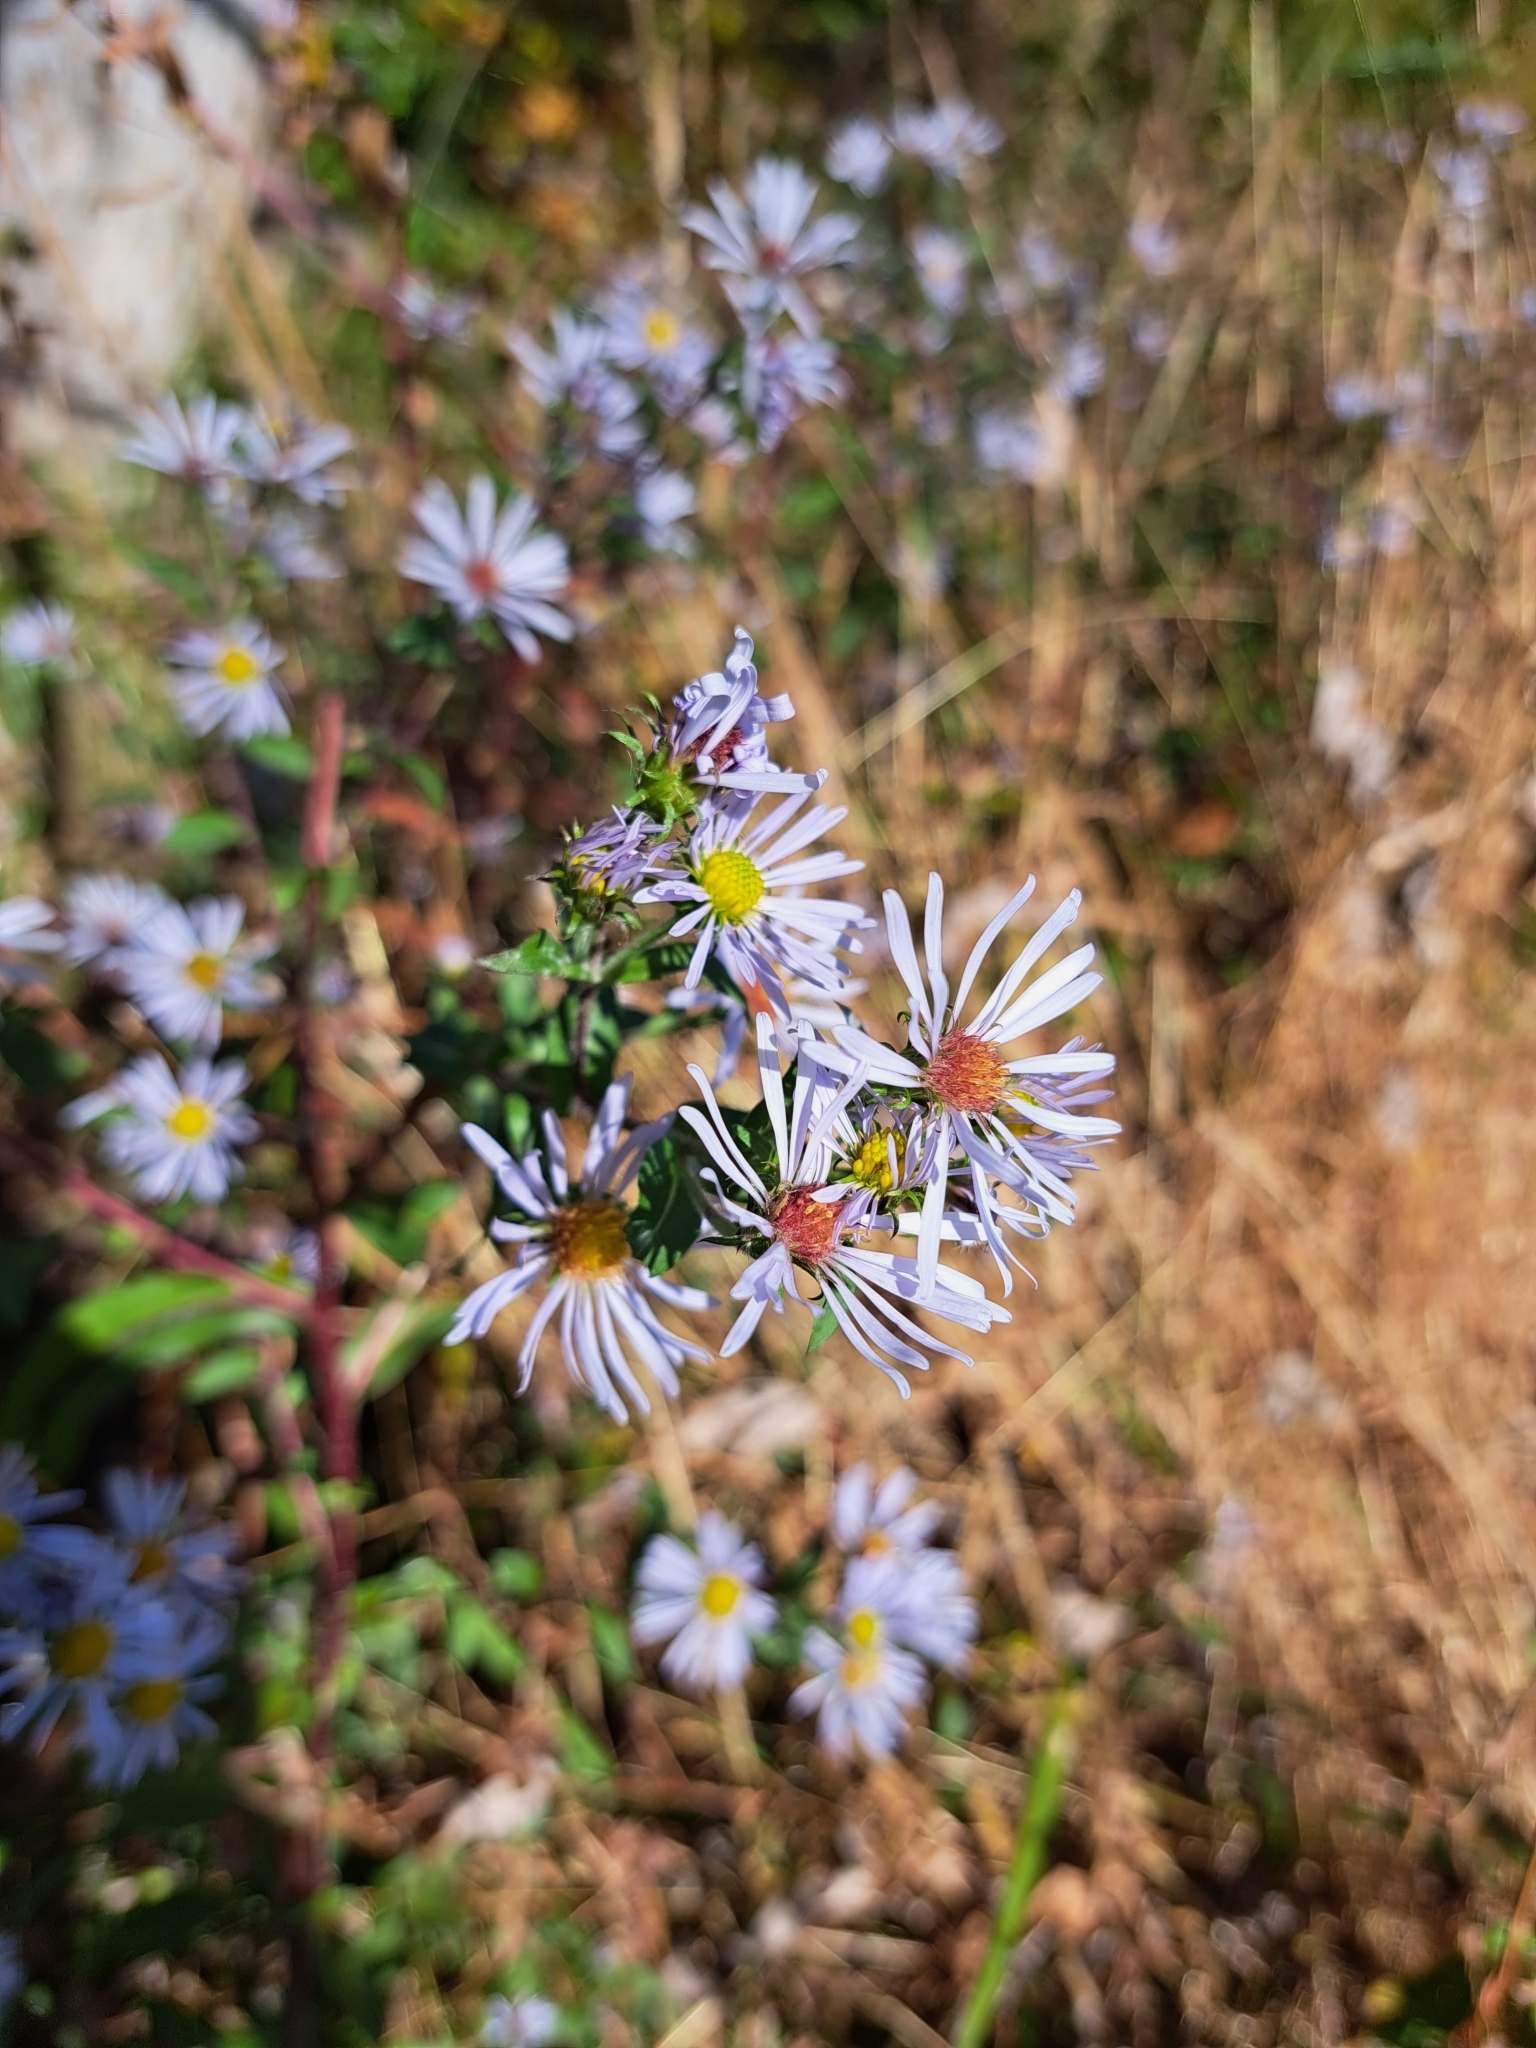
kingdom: Plantae
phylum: Tracheophyta
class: Magnoliopsida
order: Asterales
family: Asteraceae
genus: Symphyotrichum
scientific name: Symphyotrichum puniceum
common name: Bog aster
